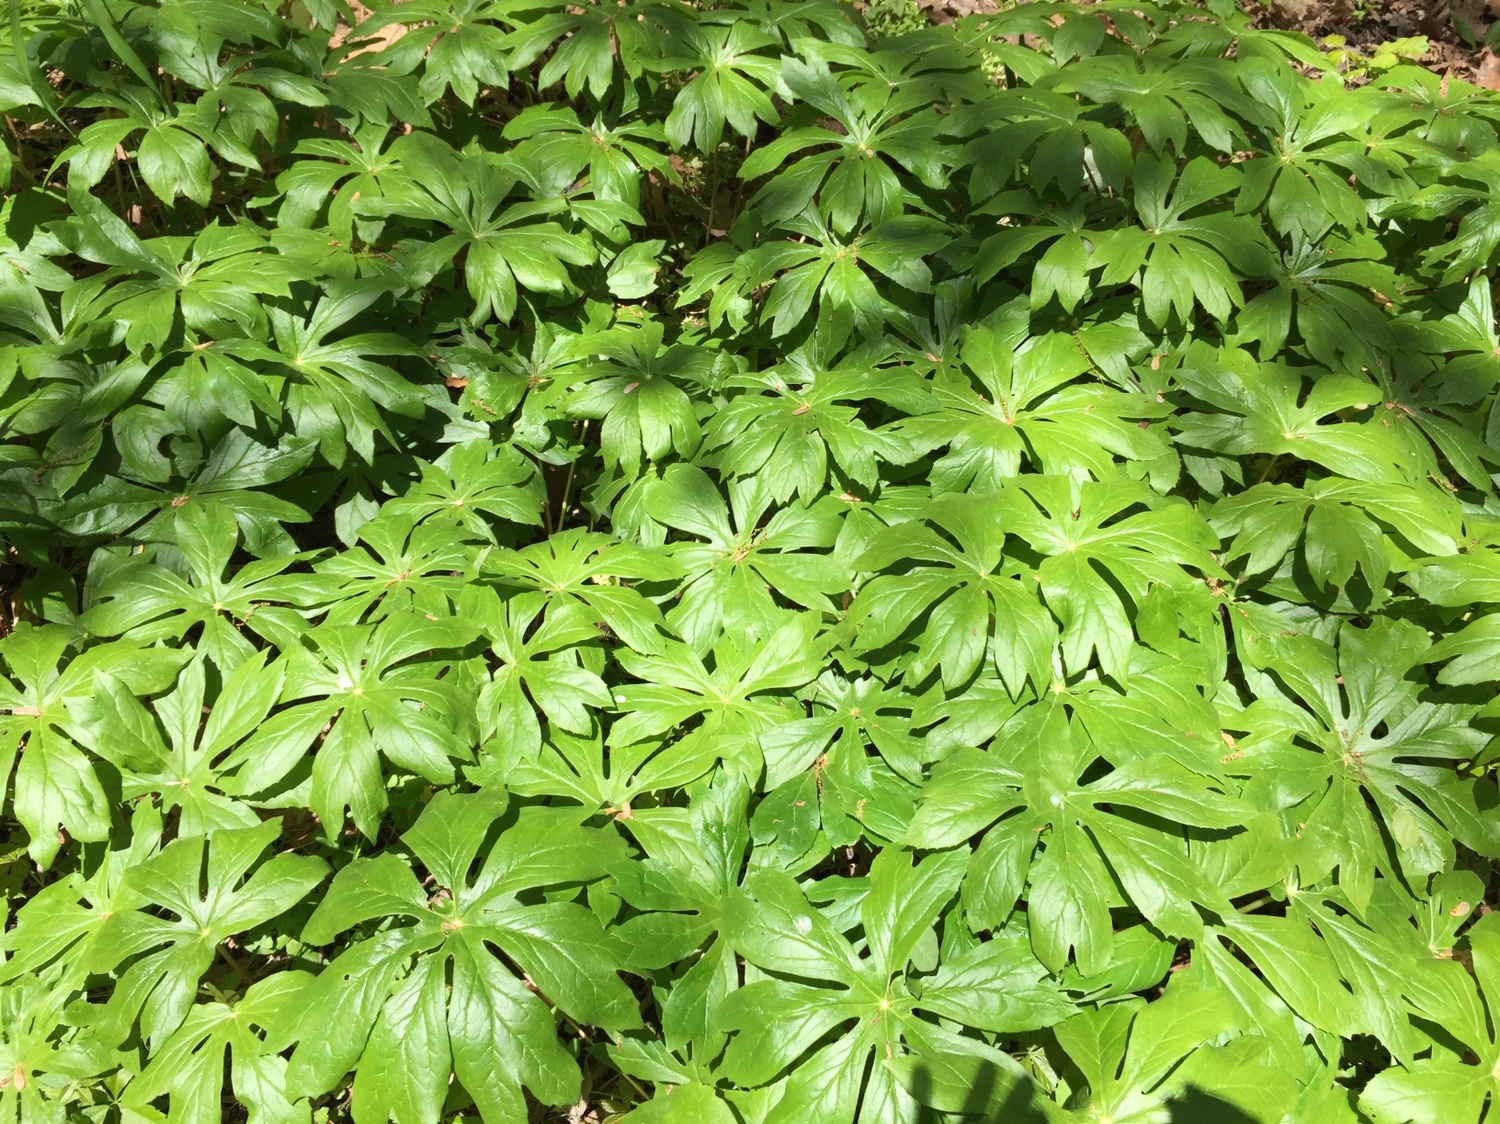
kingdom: Plantae
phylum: Tracheophyta
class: Magnoliopsida
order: Ranunculales
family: Berberidaceae
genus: Podophyllum
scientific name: Podophyllum peltatum
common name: Wild mandrake
